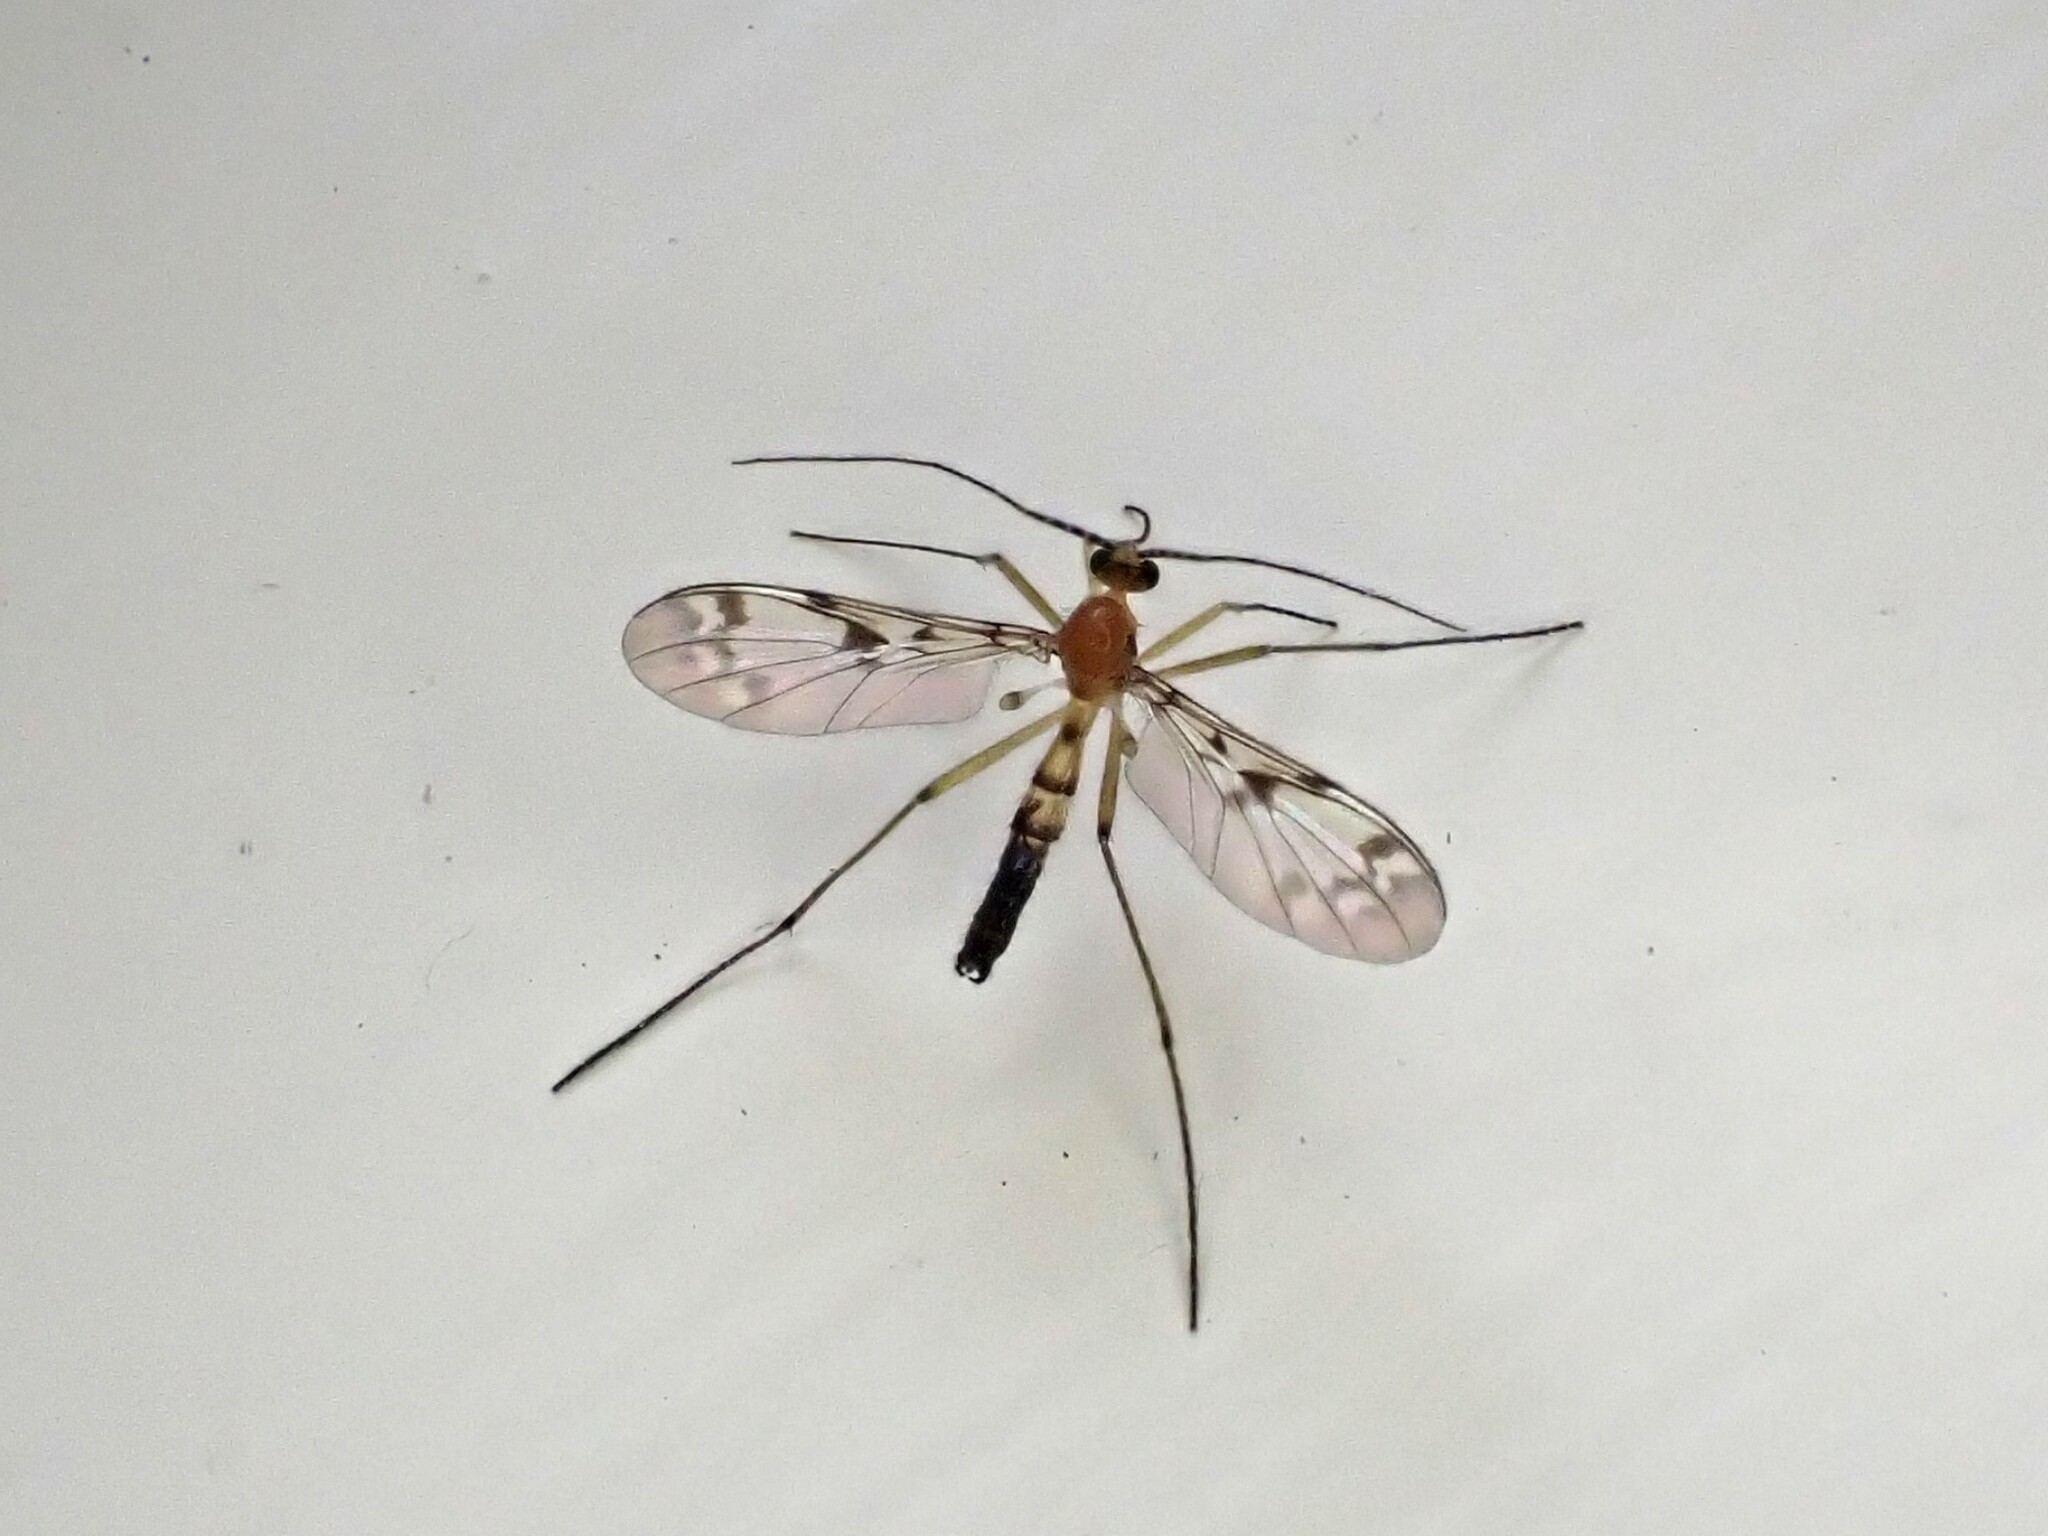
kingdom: Animalia
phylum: Arthropoda
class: Insecta
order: Diptera
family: Keroplatidae
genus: Chiasmoneura
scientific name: Chiasmoneura milligani
